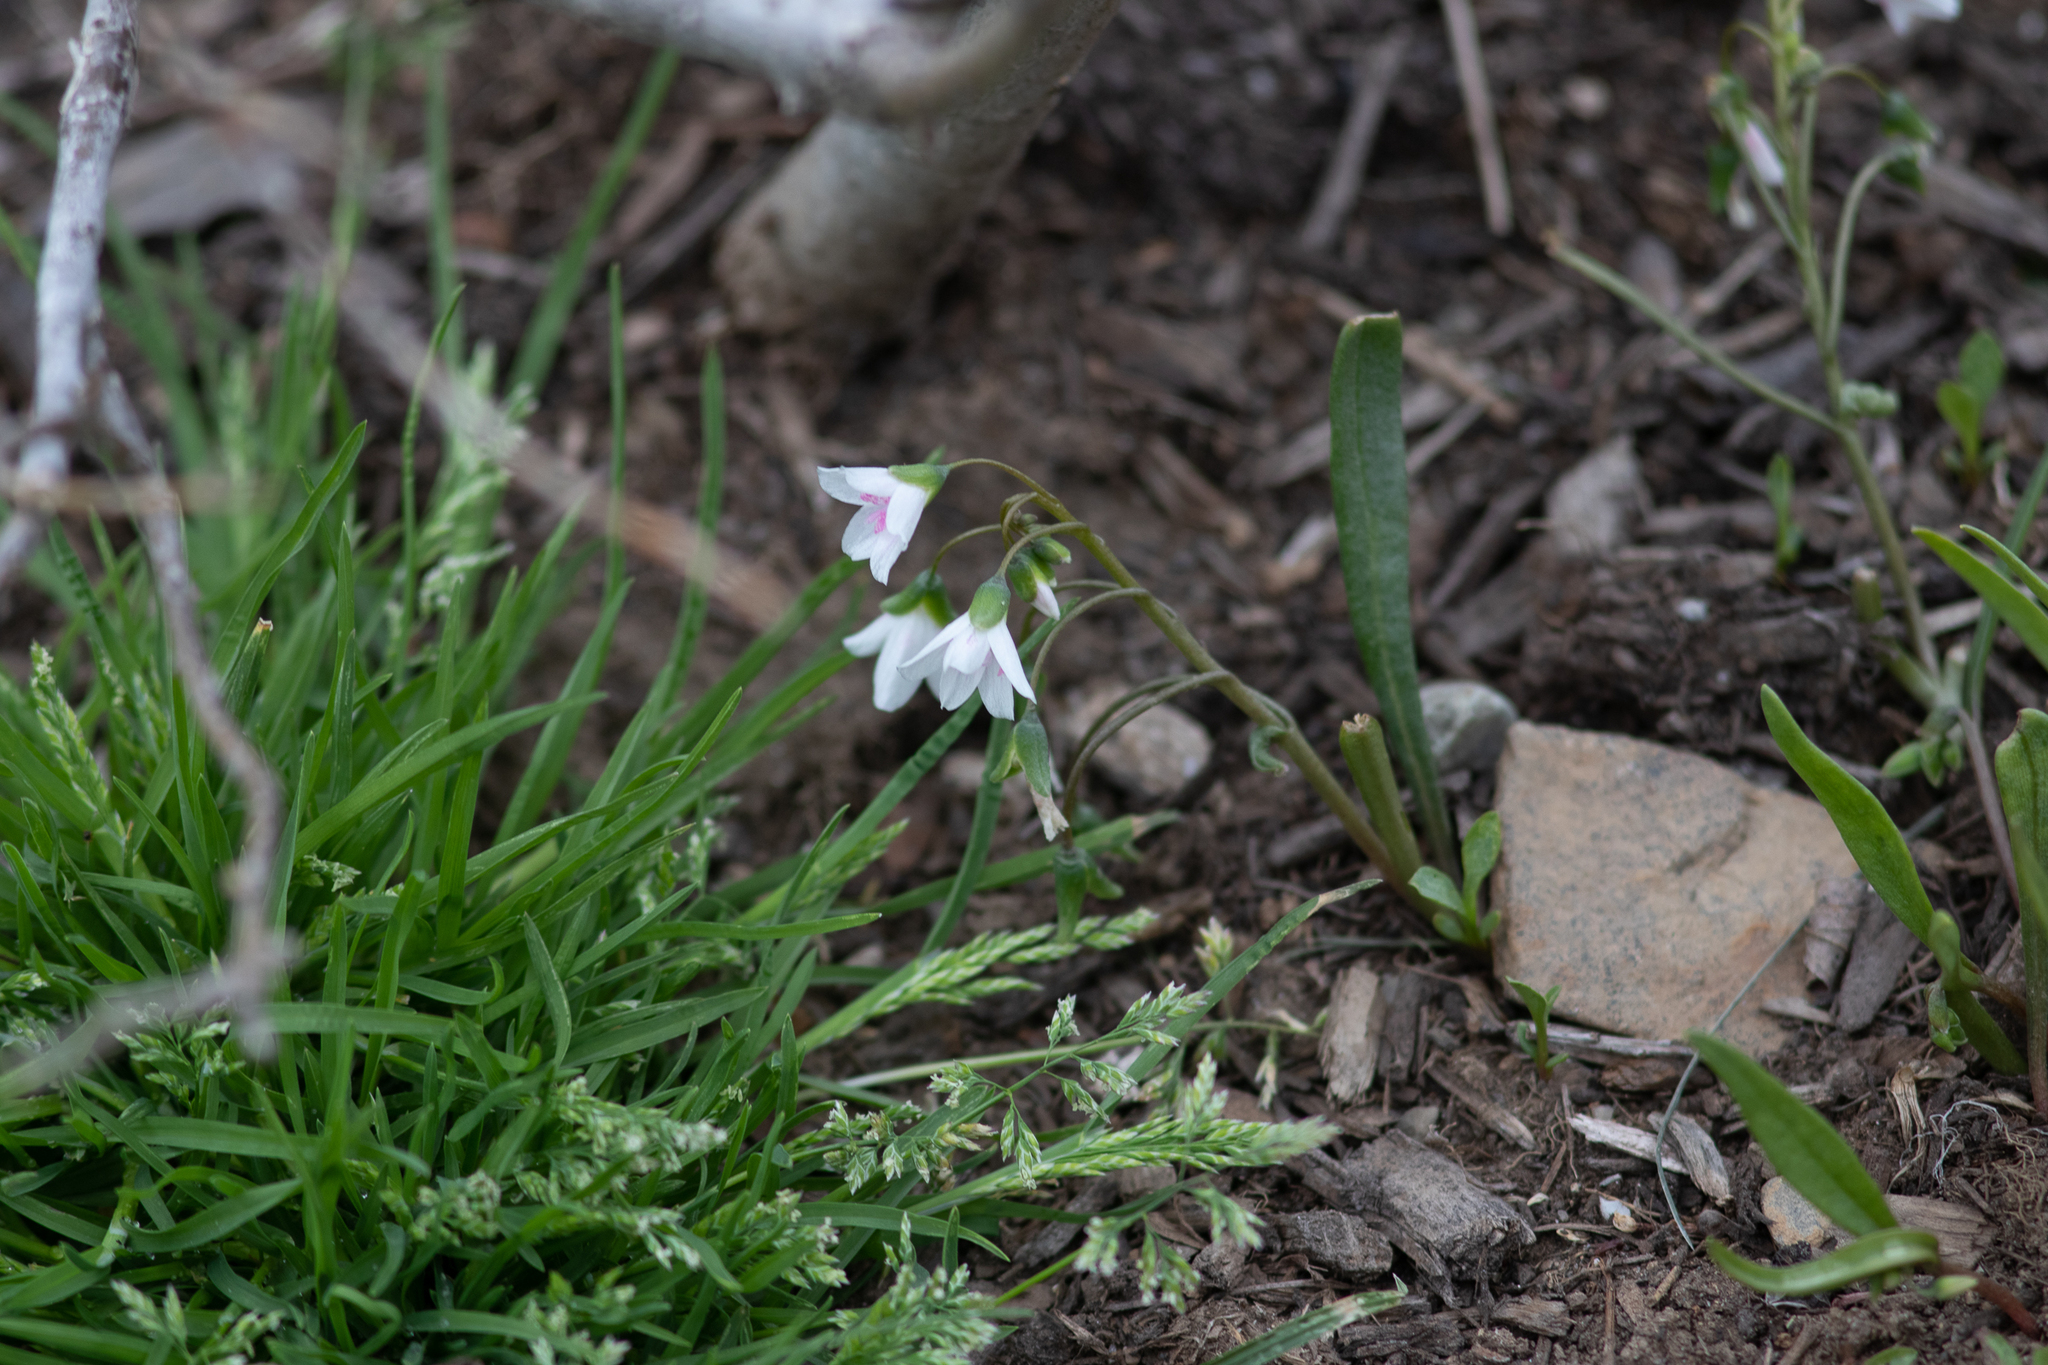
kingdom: Plantae
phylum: Tracheophyta
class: Magnoliopsida
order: Caryophyllales
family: Montiaceae
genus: Claytonia
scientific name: Claytonia virginica
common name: Virginia springbeauty
